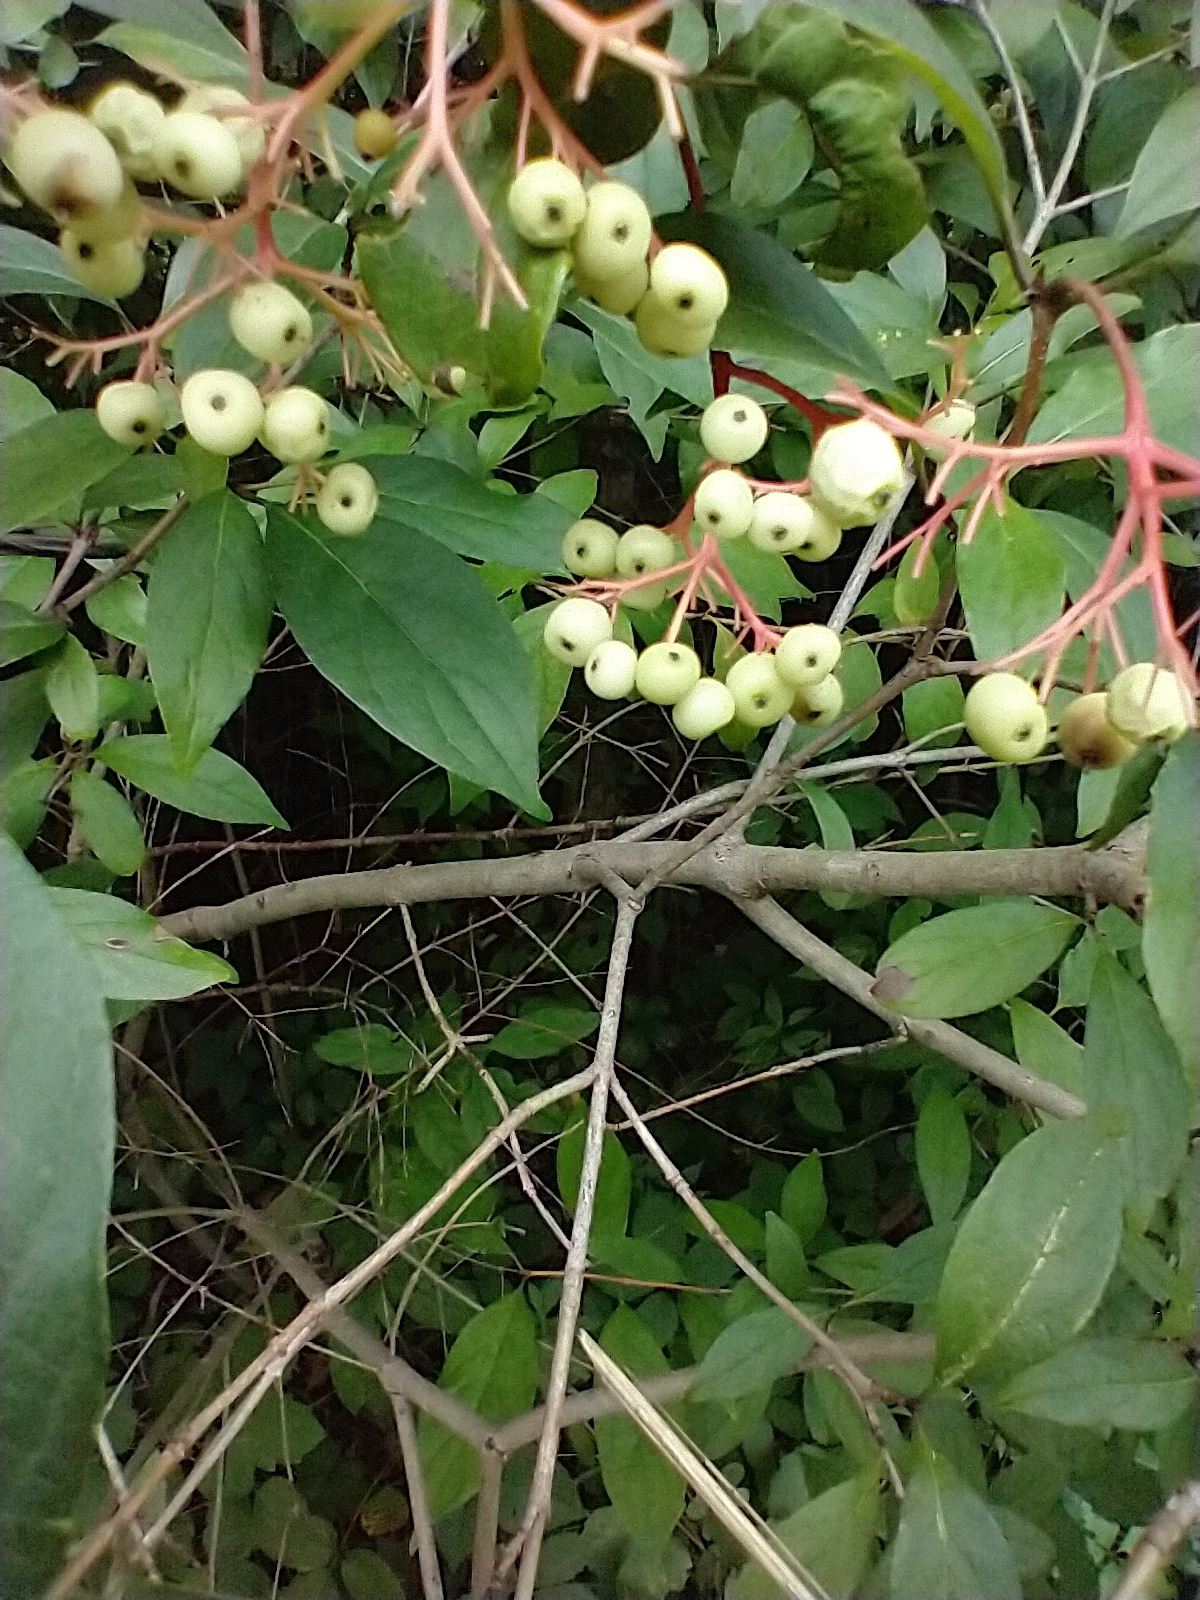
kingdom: Plantae
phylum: Tracheophyta
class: Magnoliopsida
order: Cornales
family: Cornaceae
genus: Cornus
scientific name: Cornus racemosa
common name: Panicled dogwood
